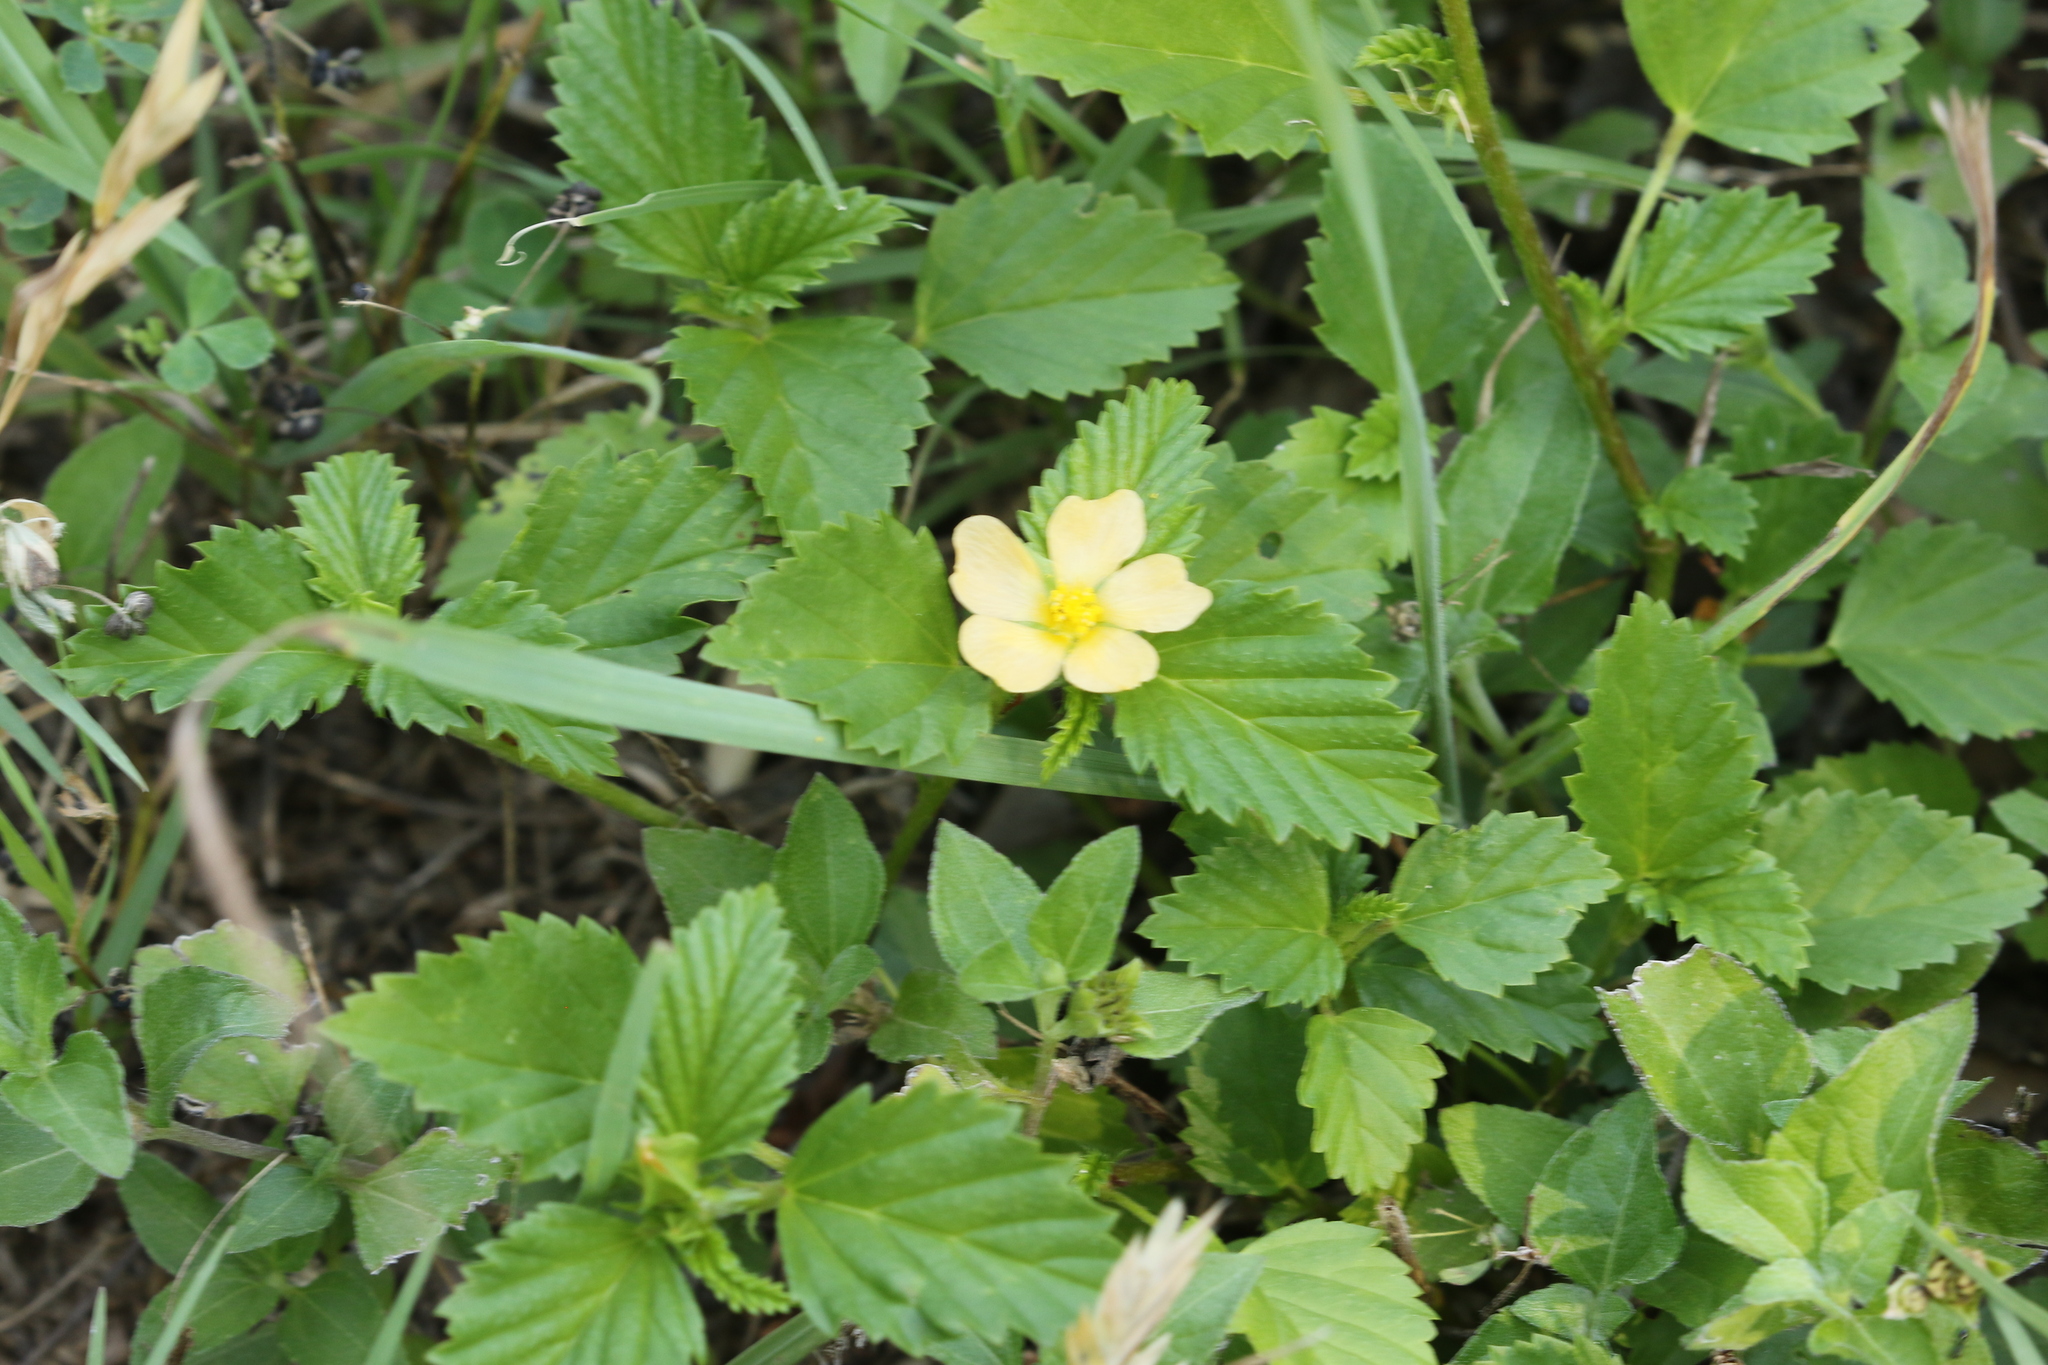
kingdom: Plantae
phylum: Tracheophyta
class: Magnoliopsida
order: Malvales
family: Malvaceae
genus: Malvastrum
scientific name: Malvastrum coromandelianum
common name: Threelobe false mallow
